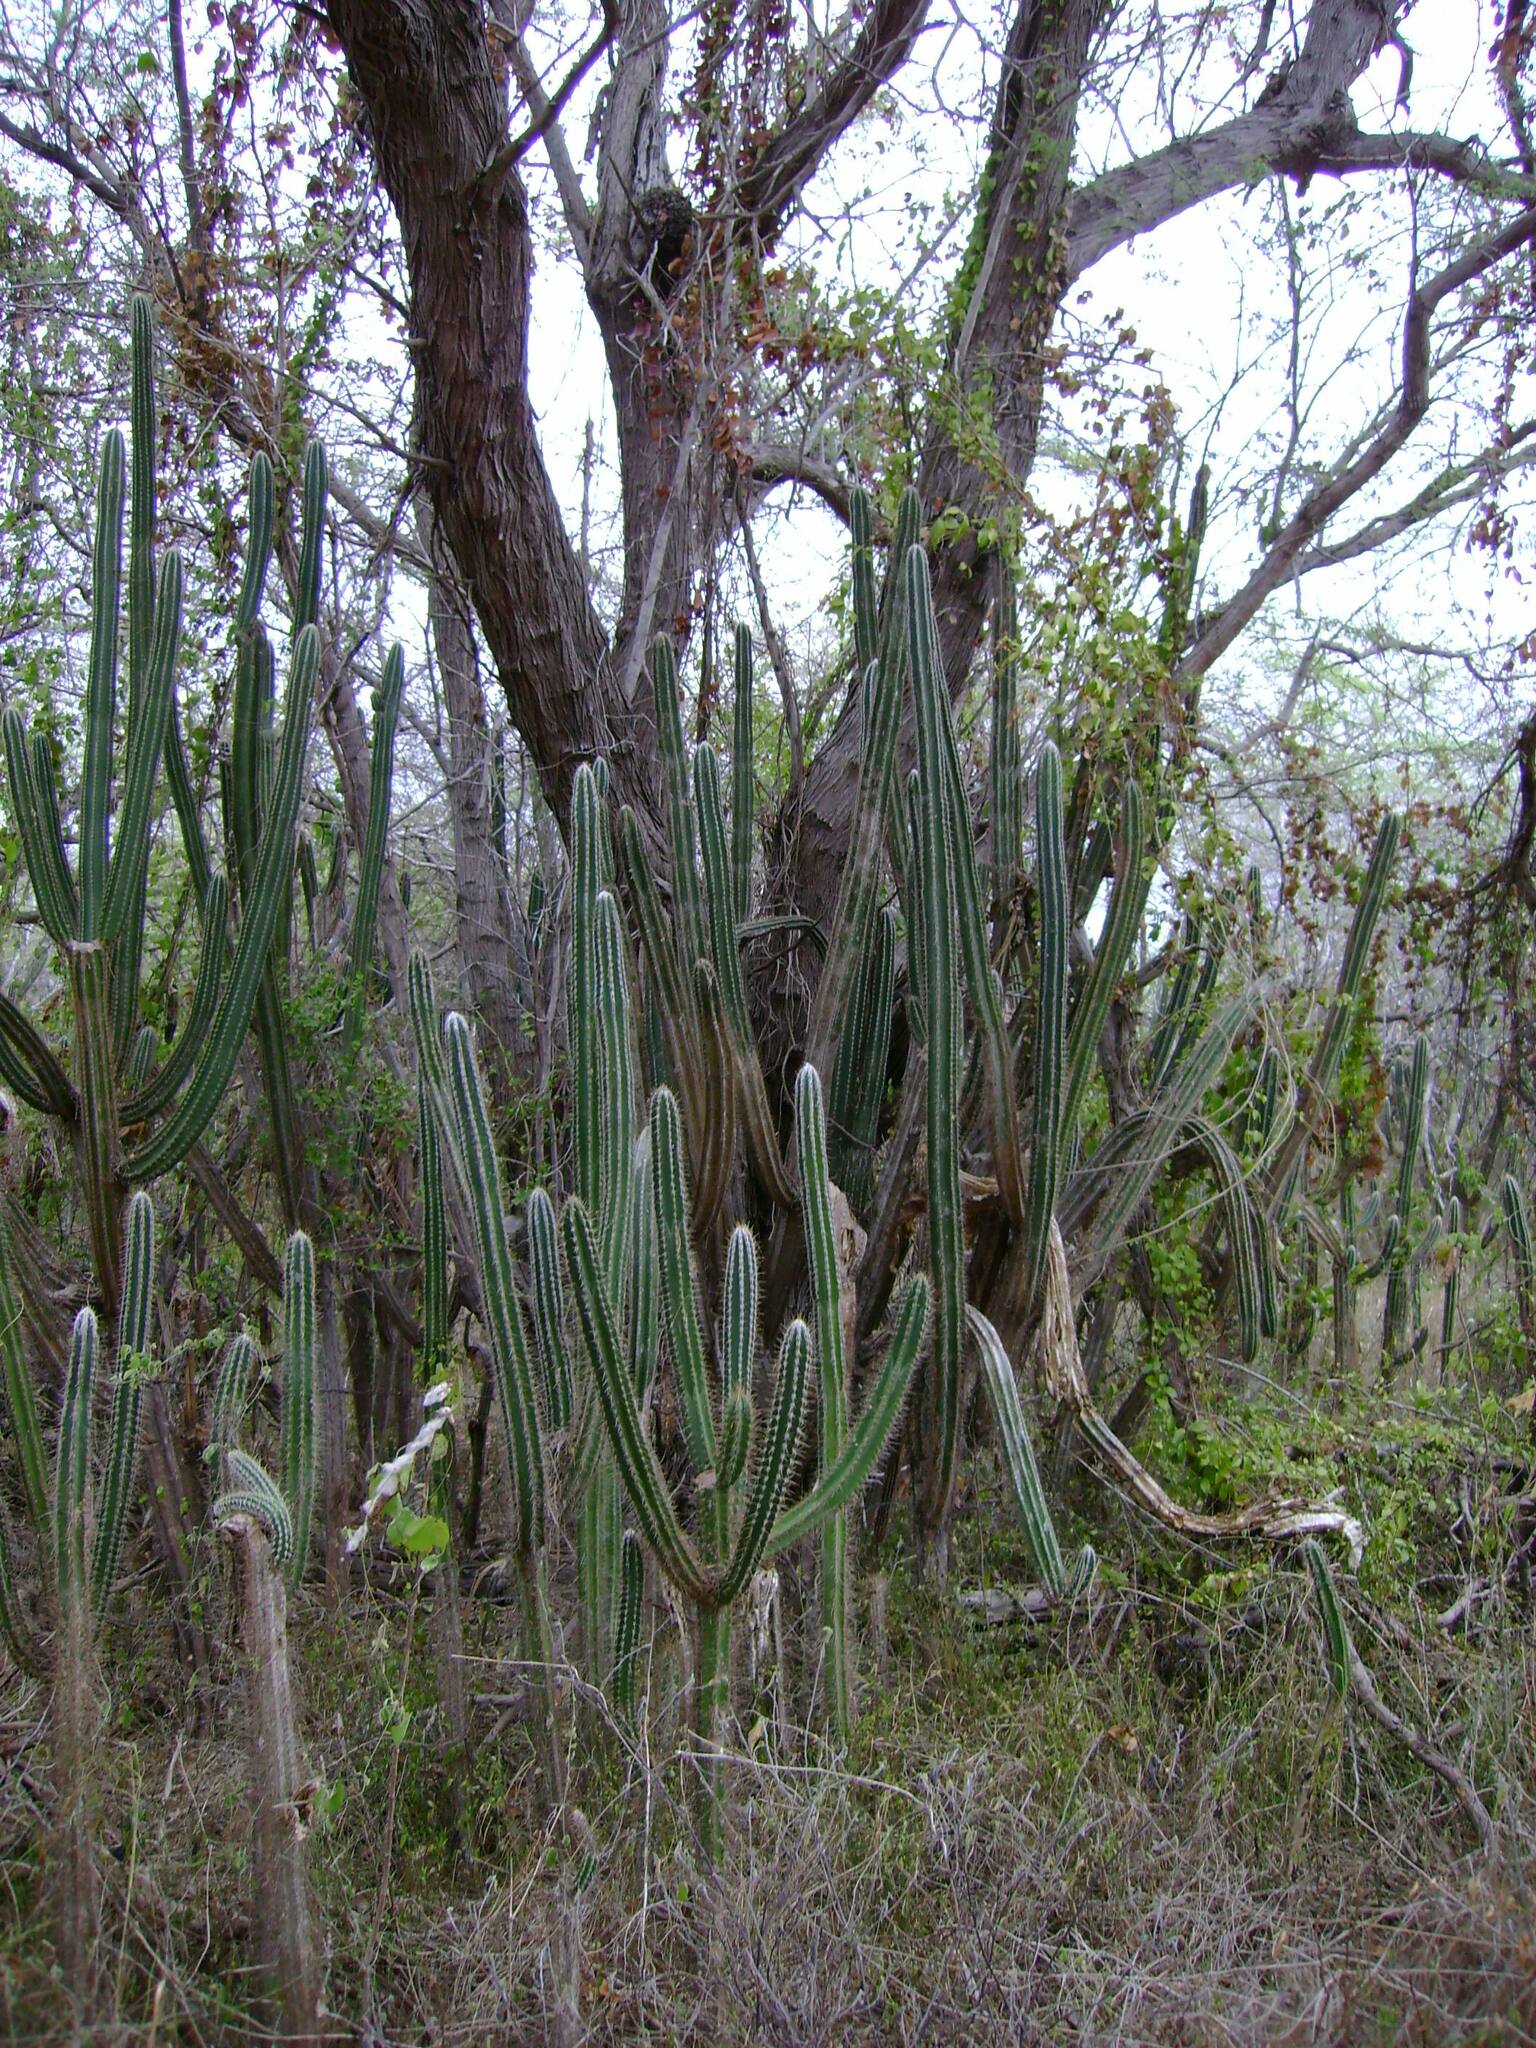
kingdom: Plantae
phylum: Tracheophyta
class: Magnoliopsida
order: Caryophyllales
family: Cactaceae
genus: Pilosocereus
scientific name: Pilosocereus armatus
